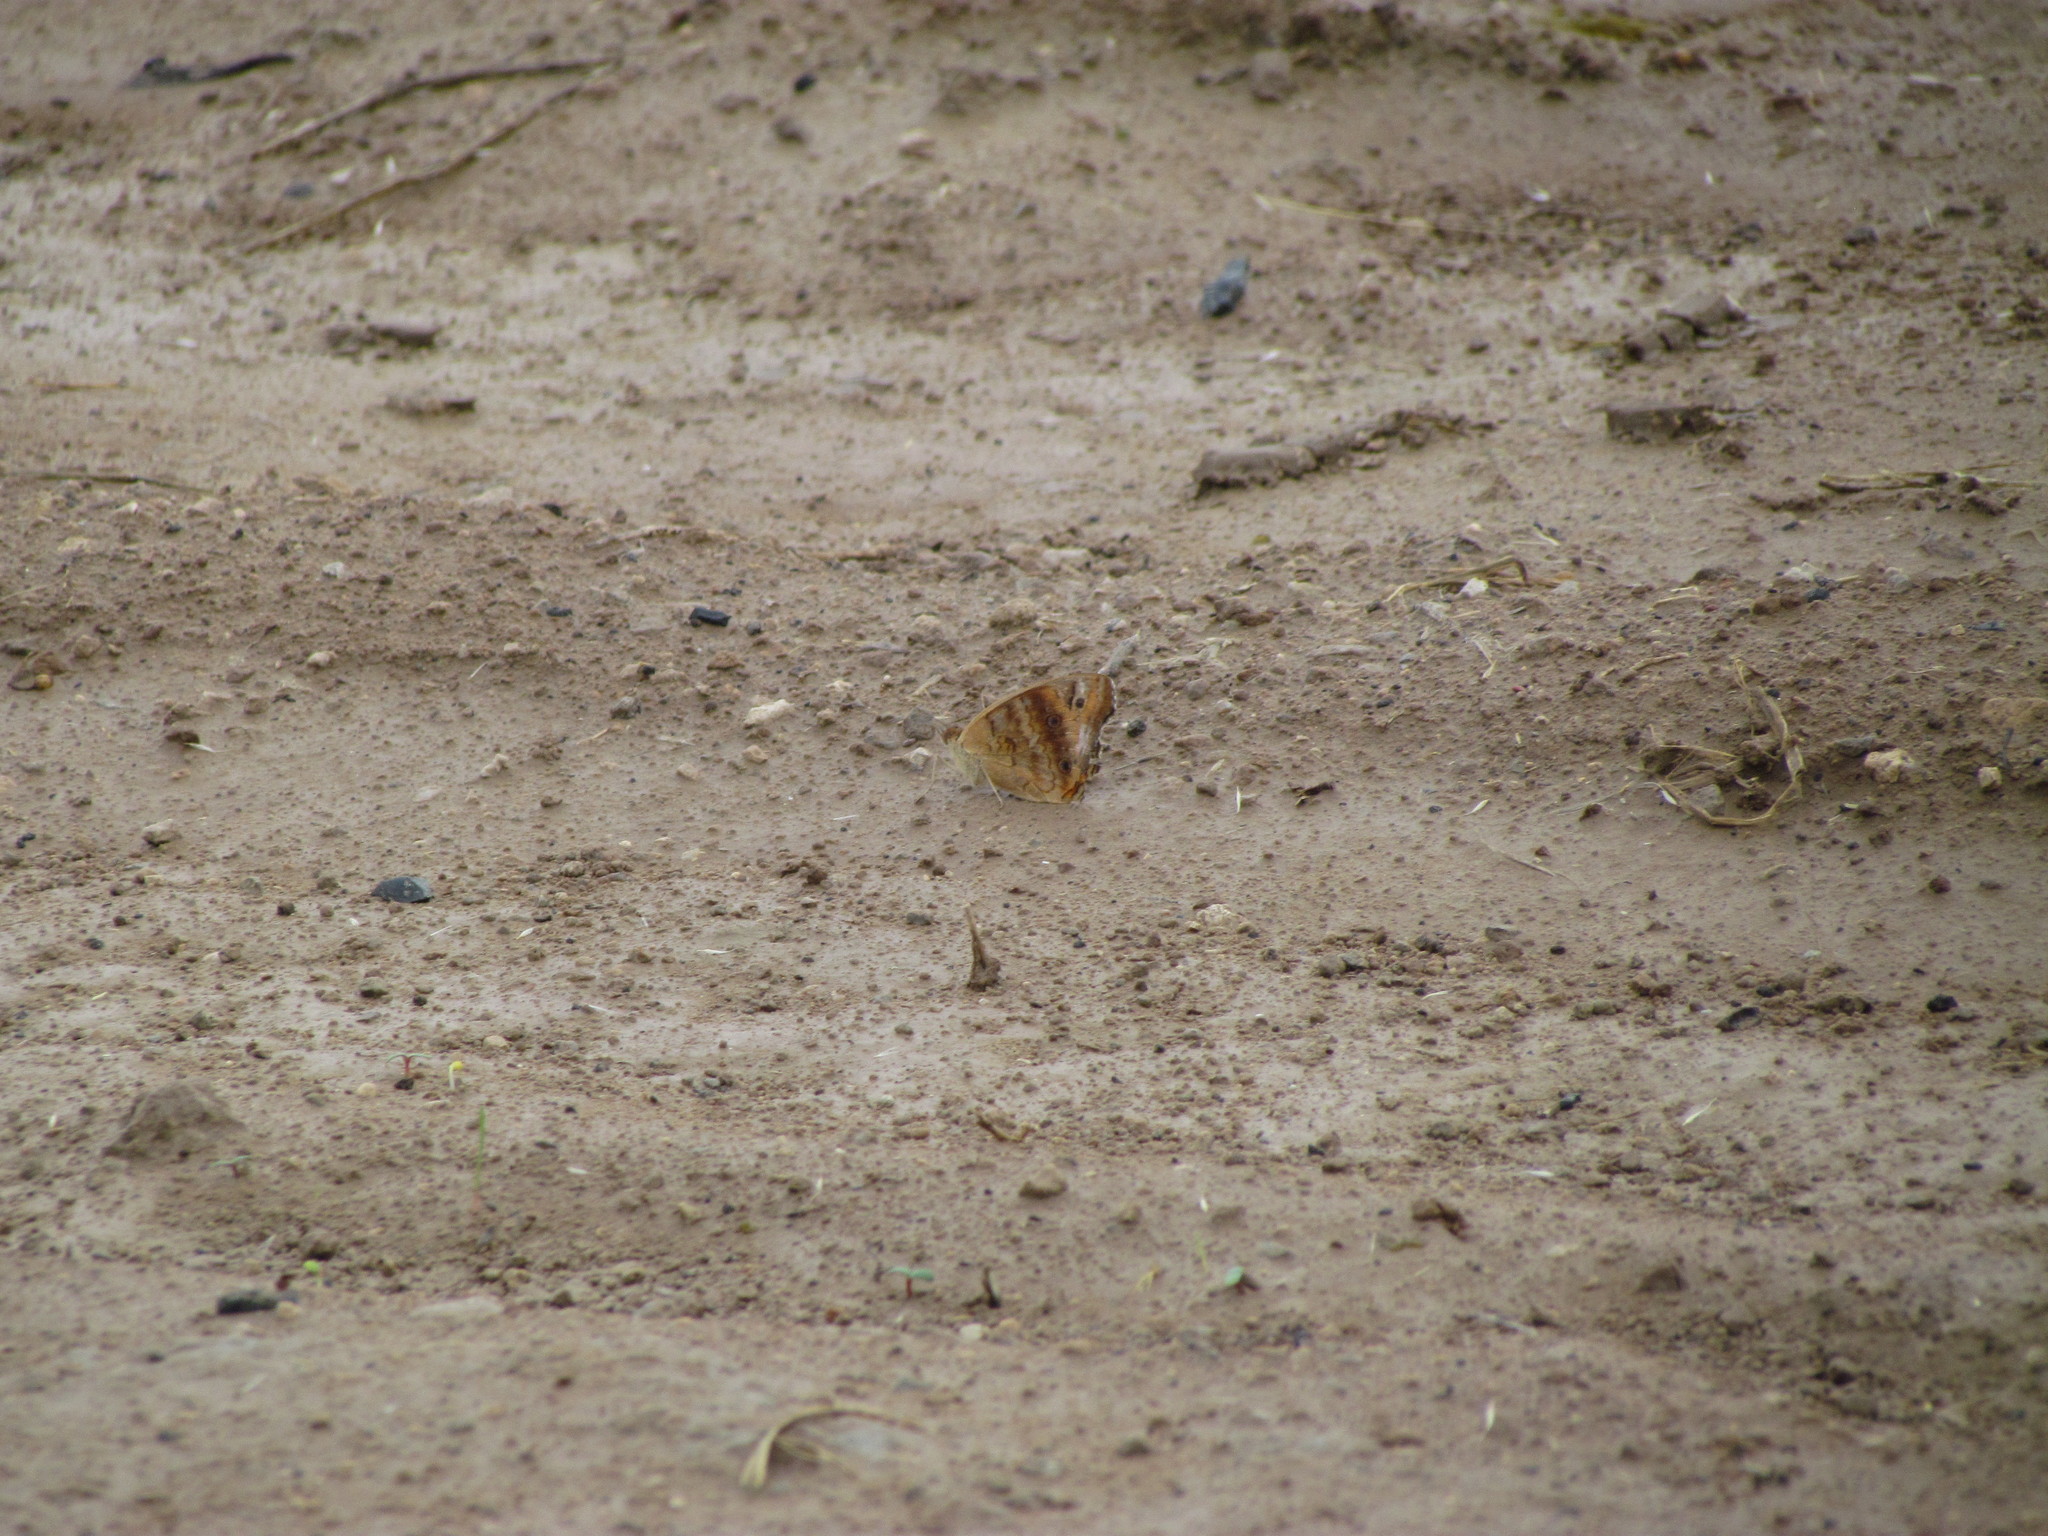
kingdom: Animalia
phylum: Arthropoda
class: Insecta
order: Lepidoptera
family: Nymphalidae
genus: Junonia
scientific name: Junonia lavinia
